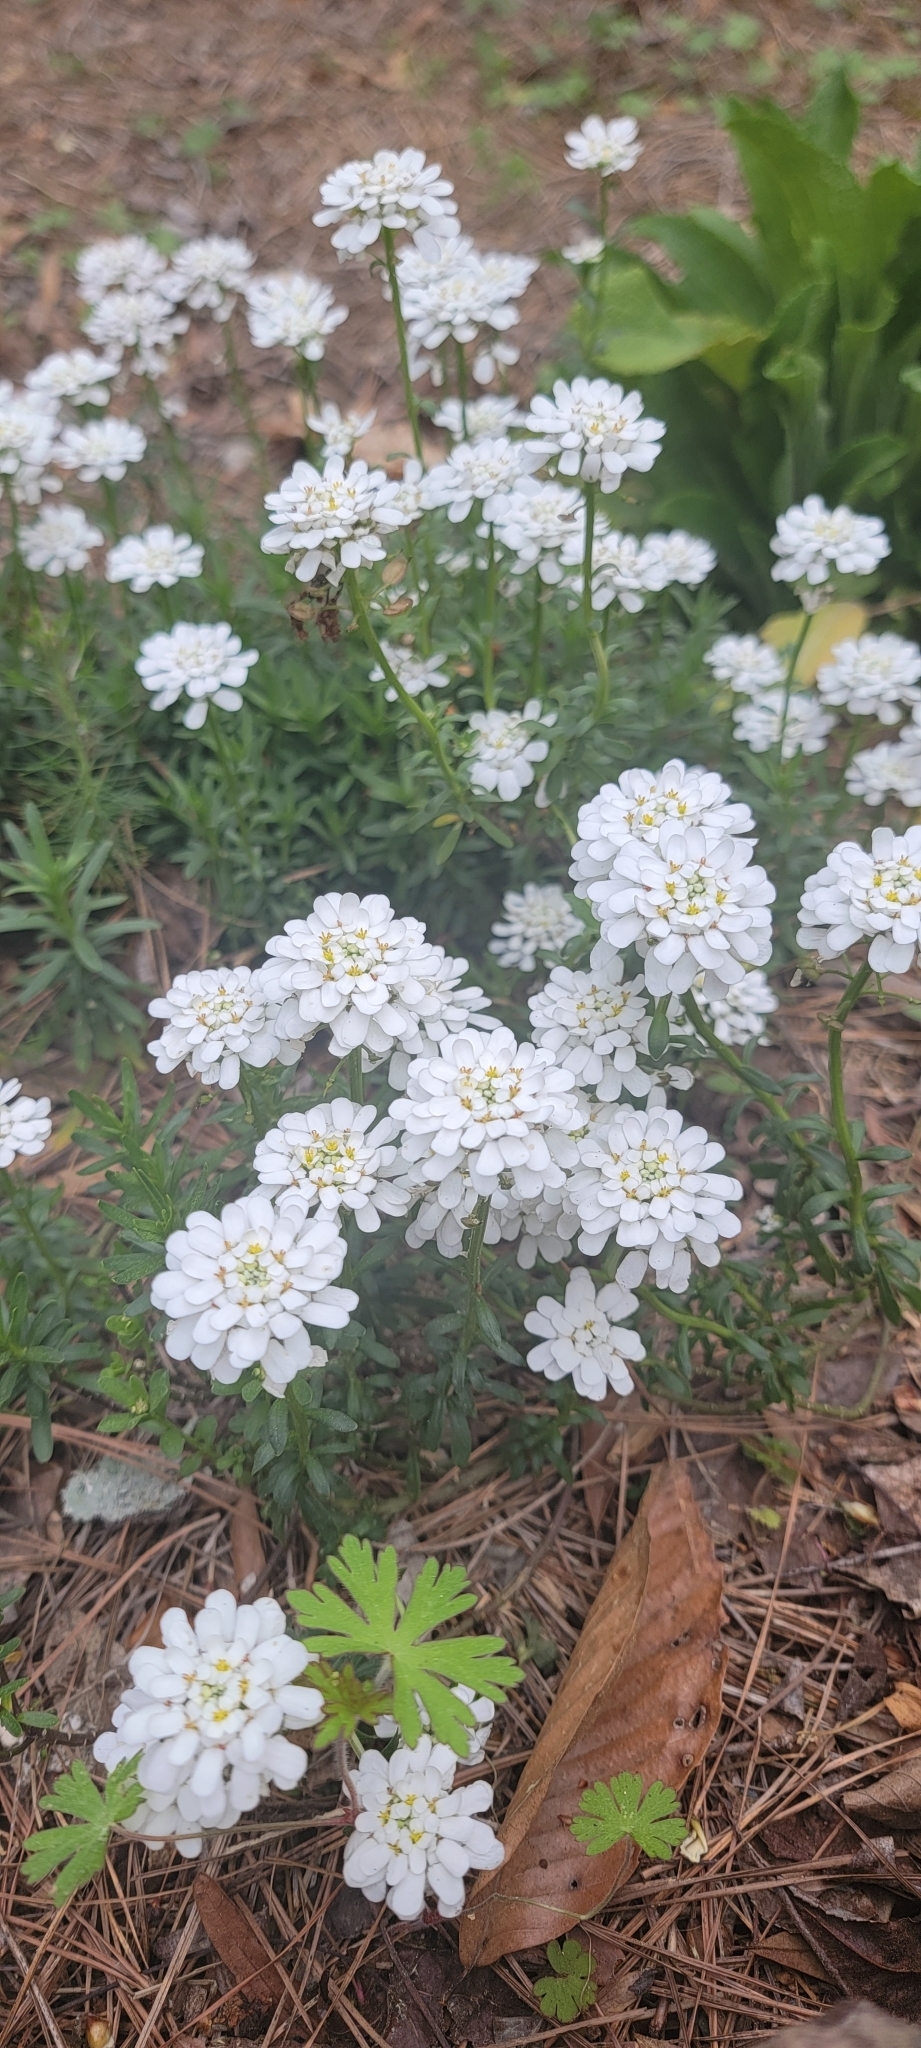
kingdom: Plantae
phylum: Tracheophyta
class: Magnoliopsida
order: Brassicales
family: Brassicaceae
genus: Iberis
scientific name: Iberis sempervirens
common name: Evergreen candytuft
